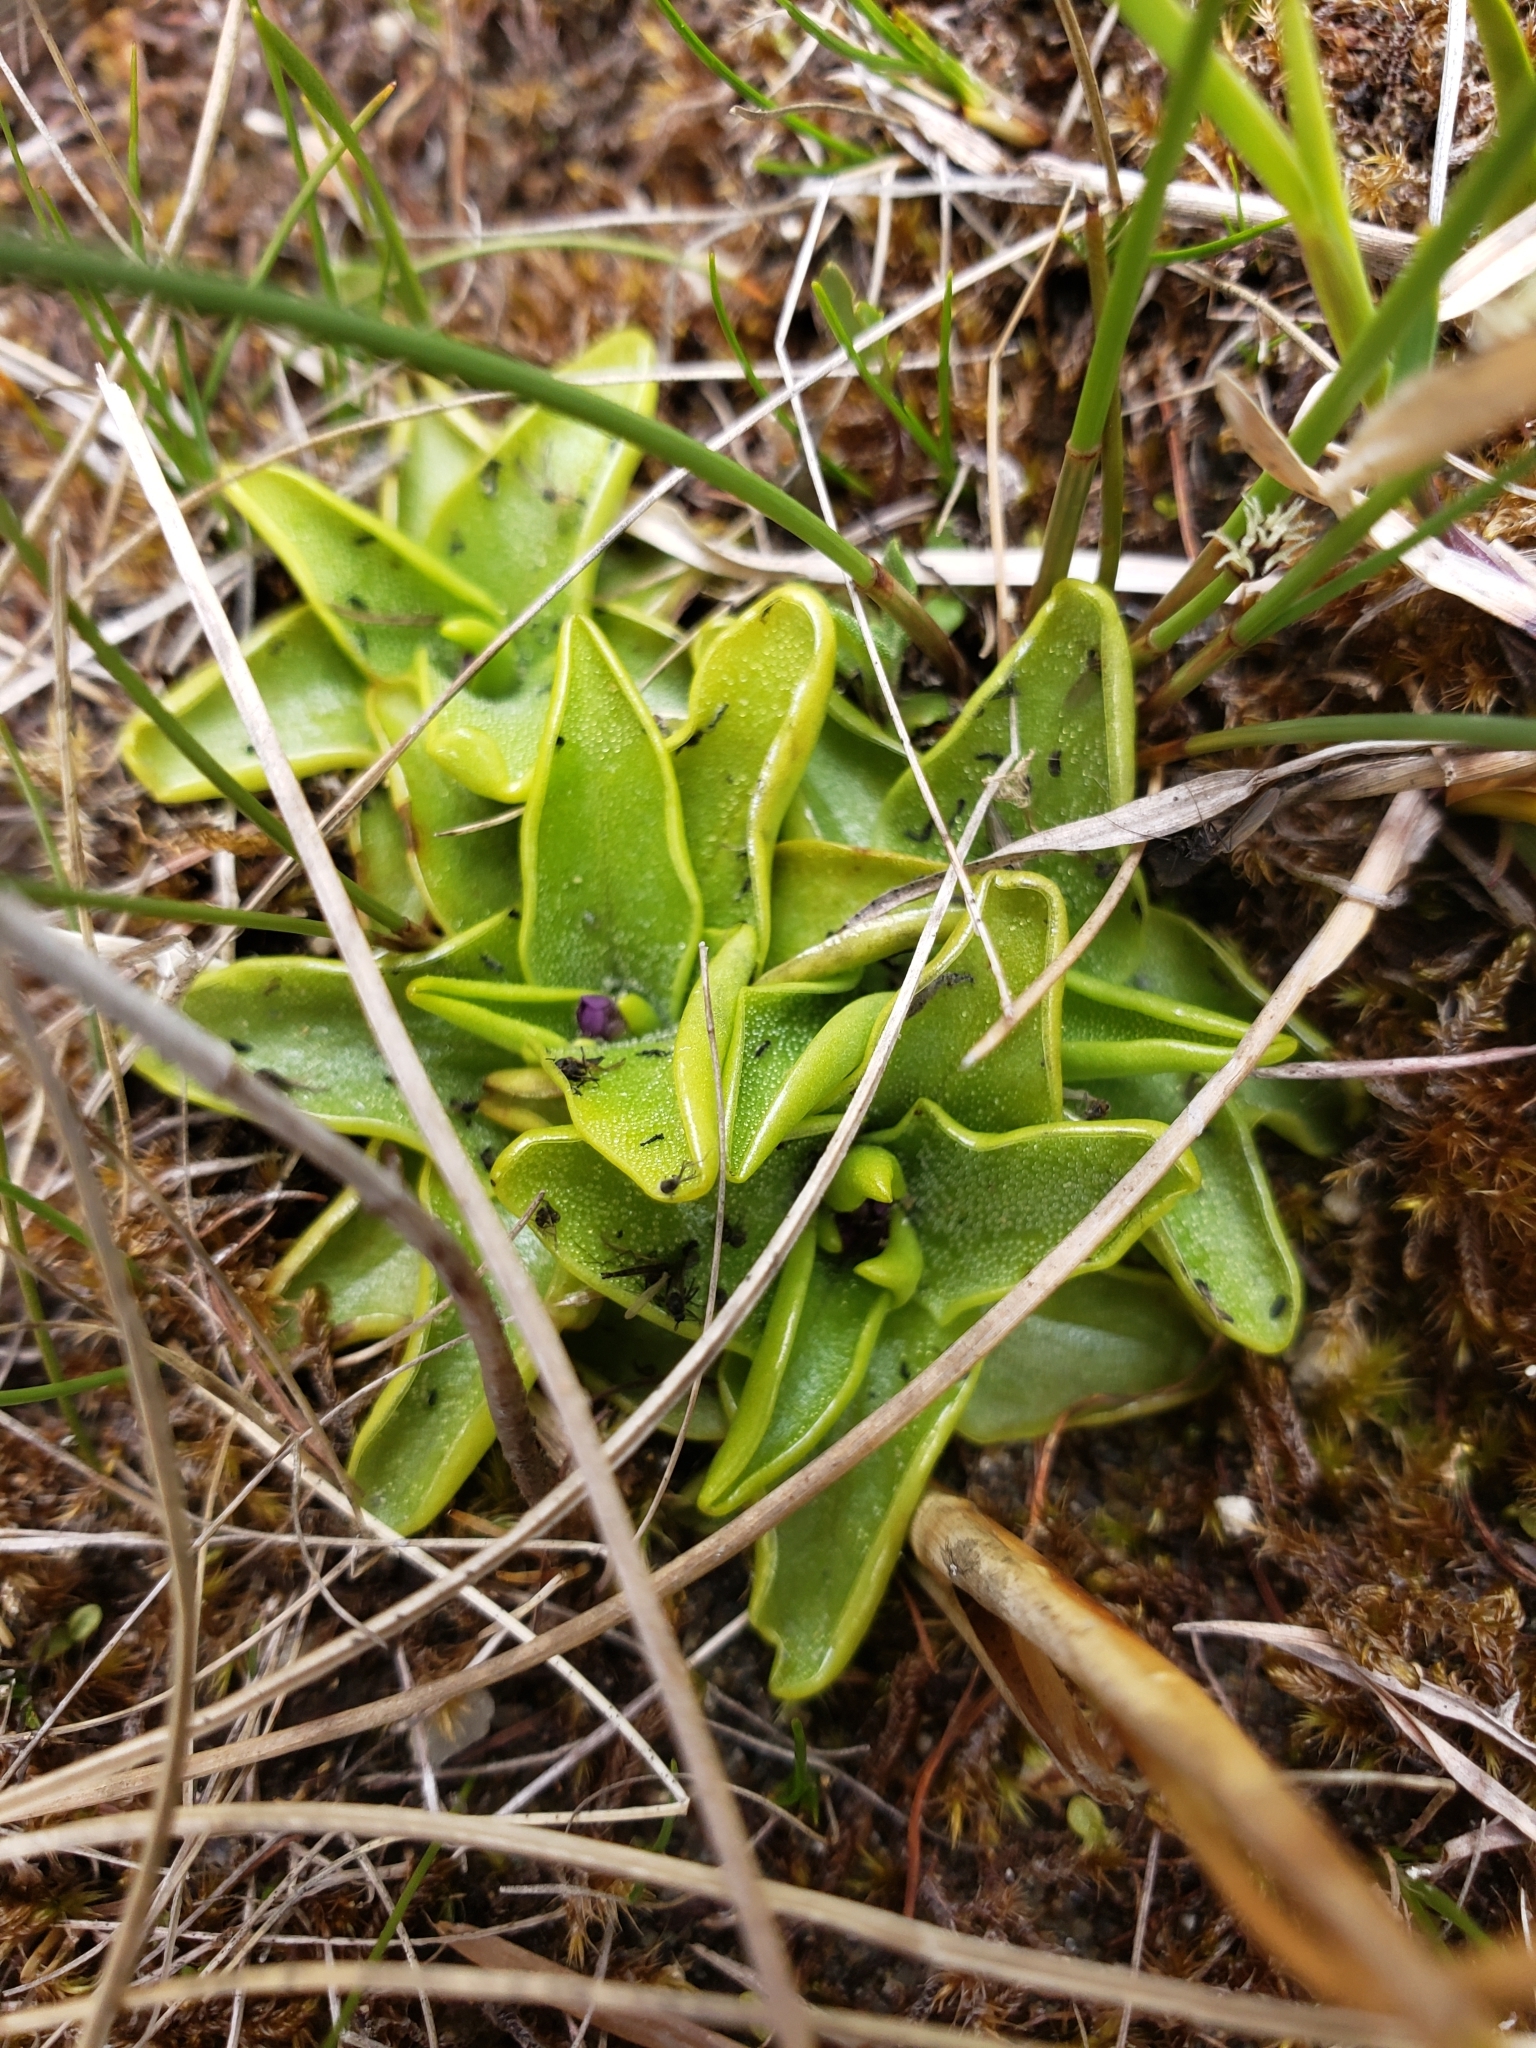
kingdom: Plantae
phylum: Tracheophyta
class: Magnoliopsida
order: Lamiales
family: Lentibulariaceae
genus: Pinguicula
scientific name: Pinguicula vulgaris
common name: Common butterwort
